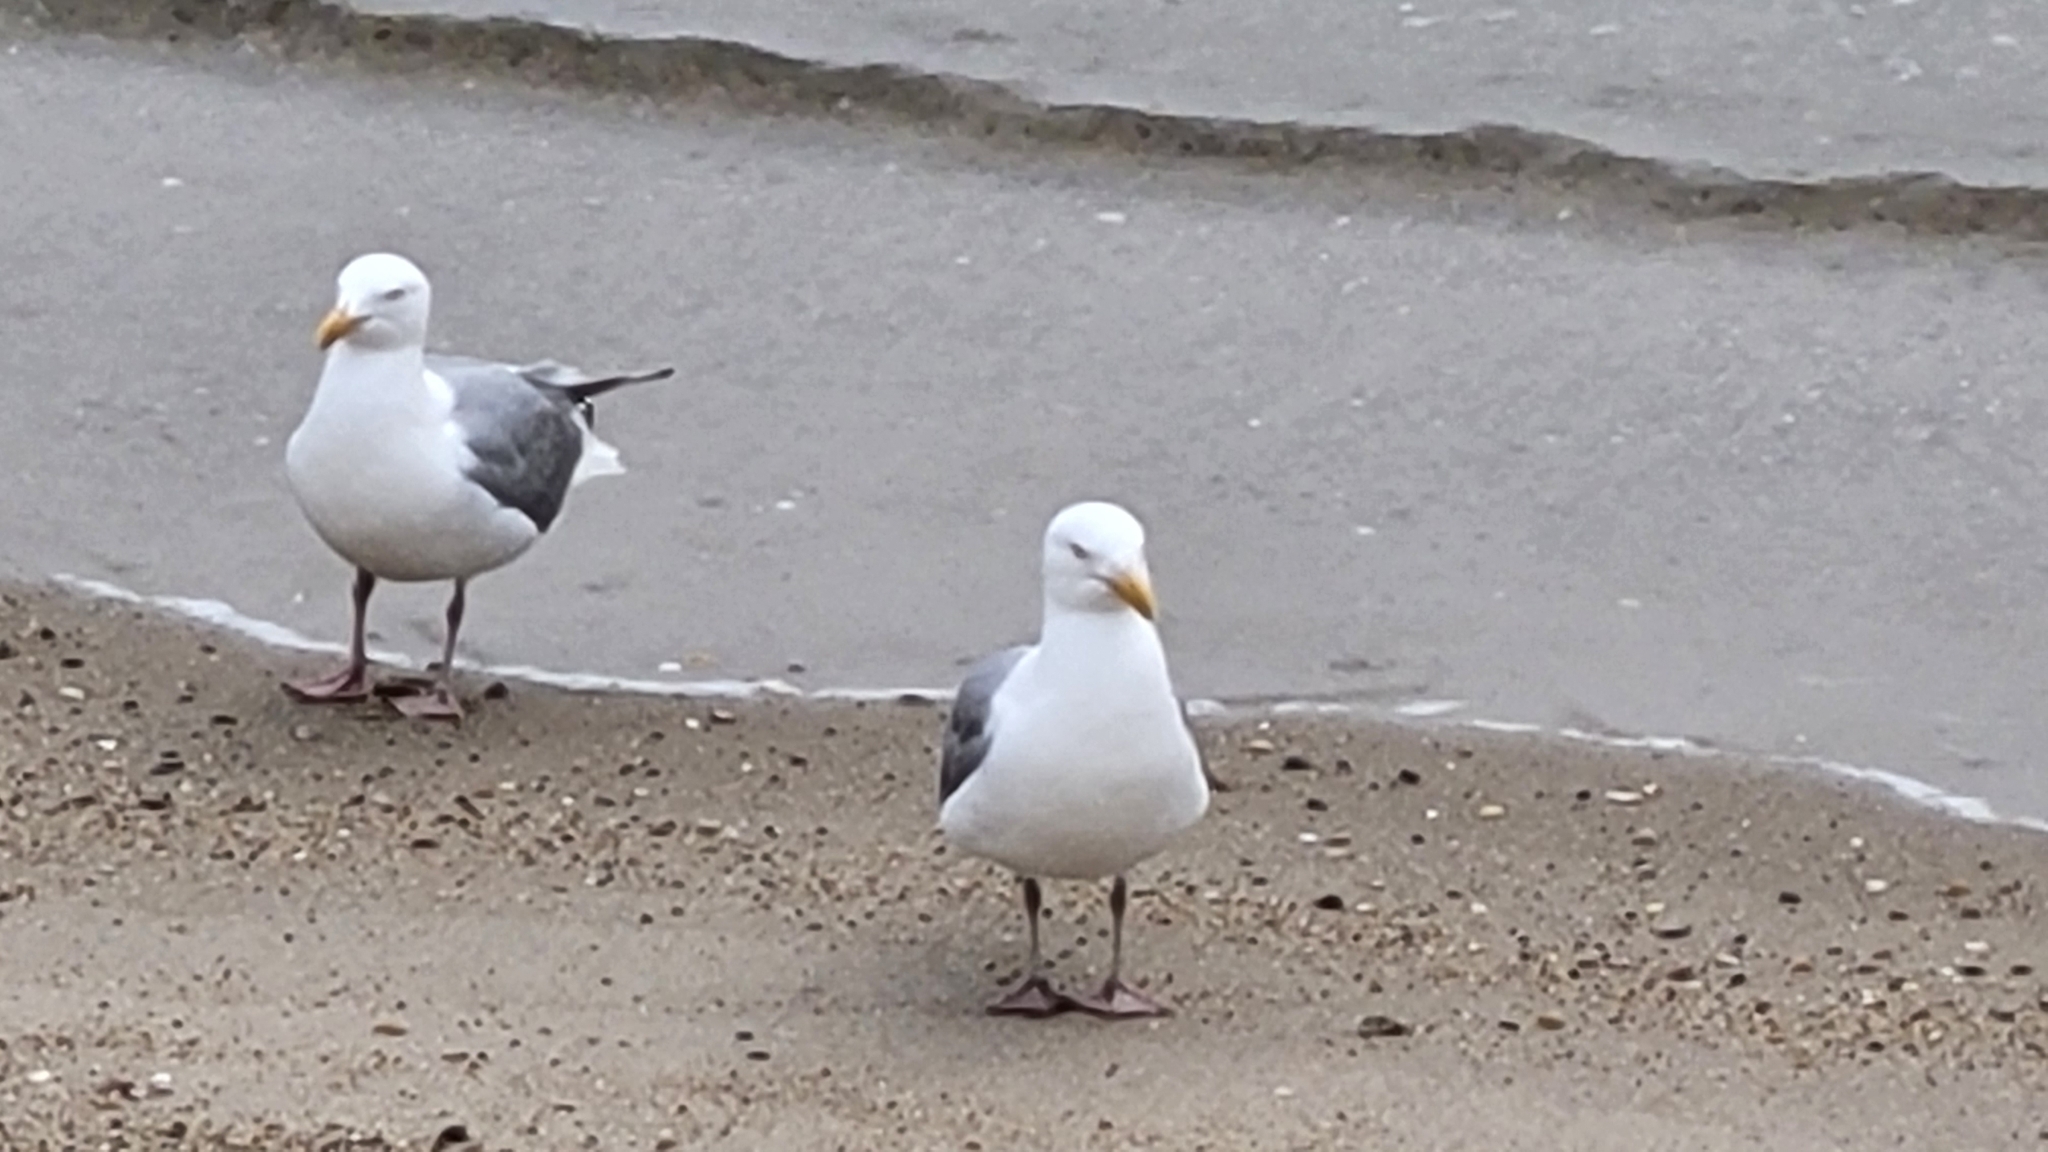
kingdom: Animalia
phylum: Chordata
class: Aves
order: Charadriiformes
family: Laridae
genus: Larus
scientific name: Larus argentatus
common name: Herring gull
